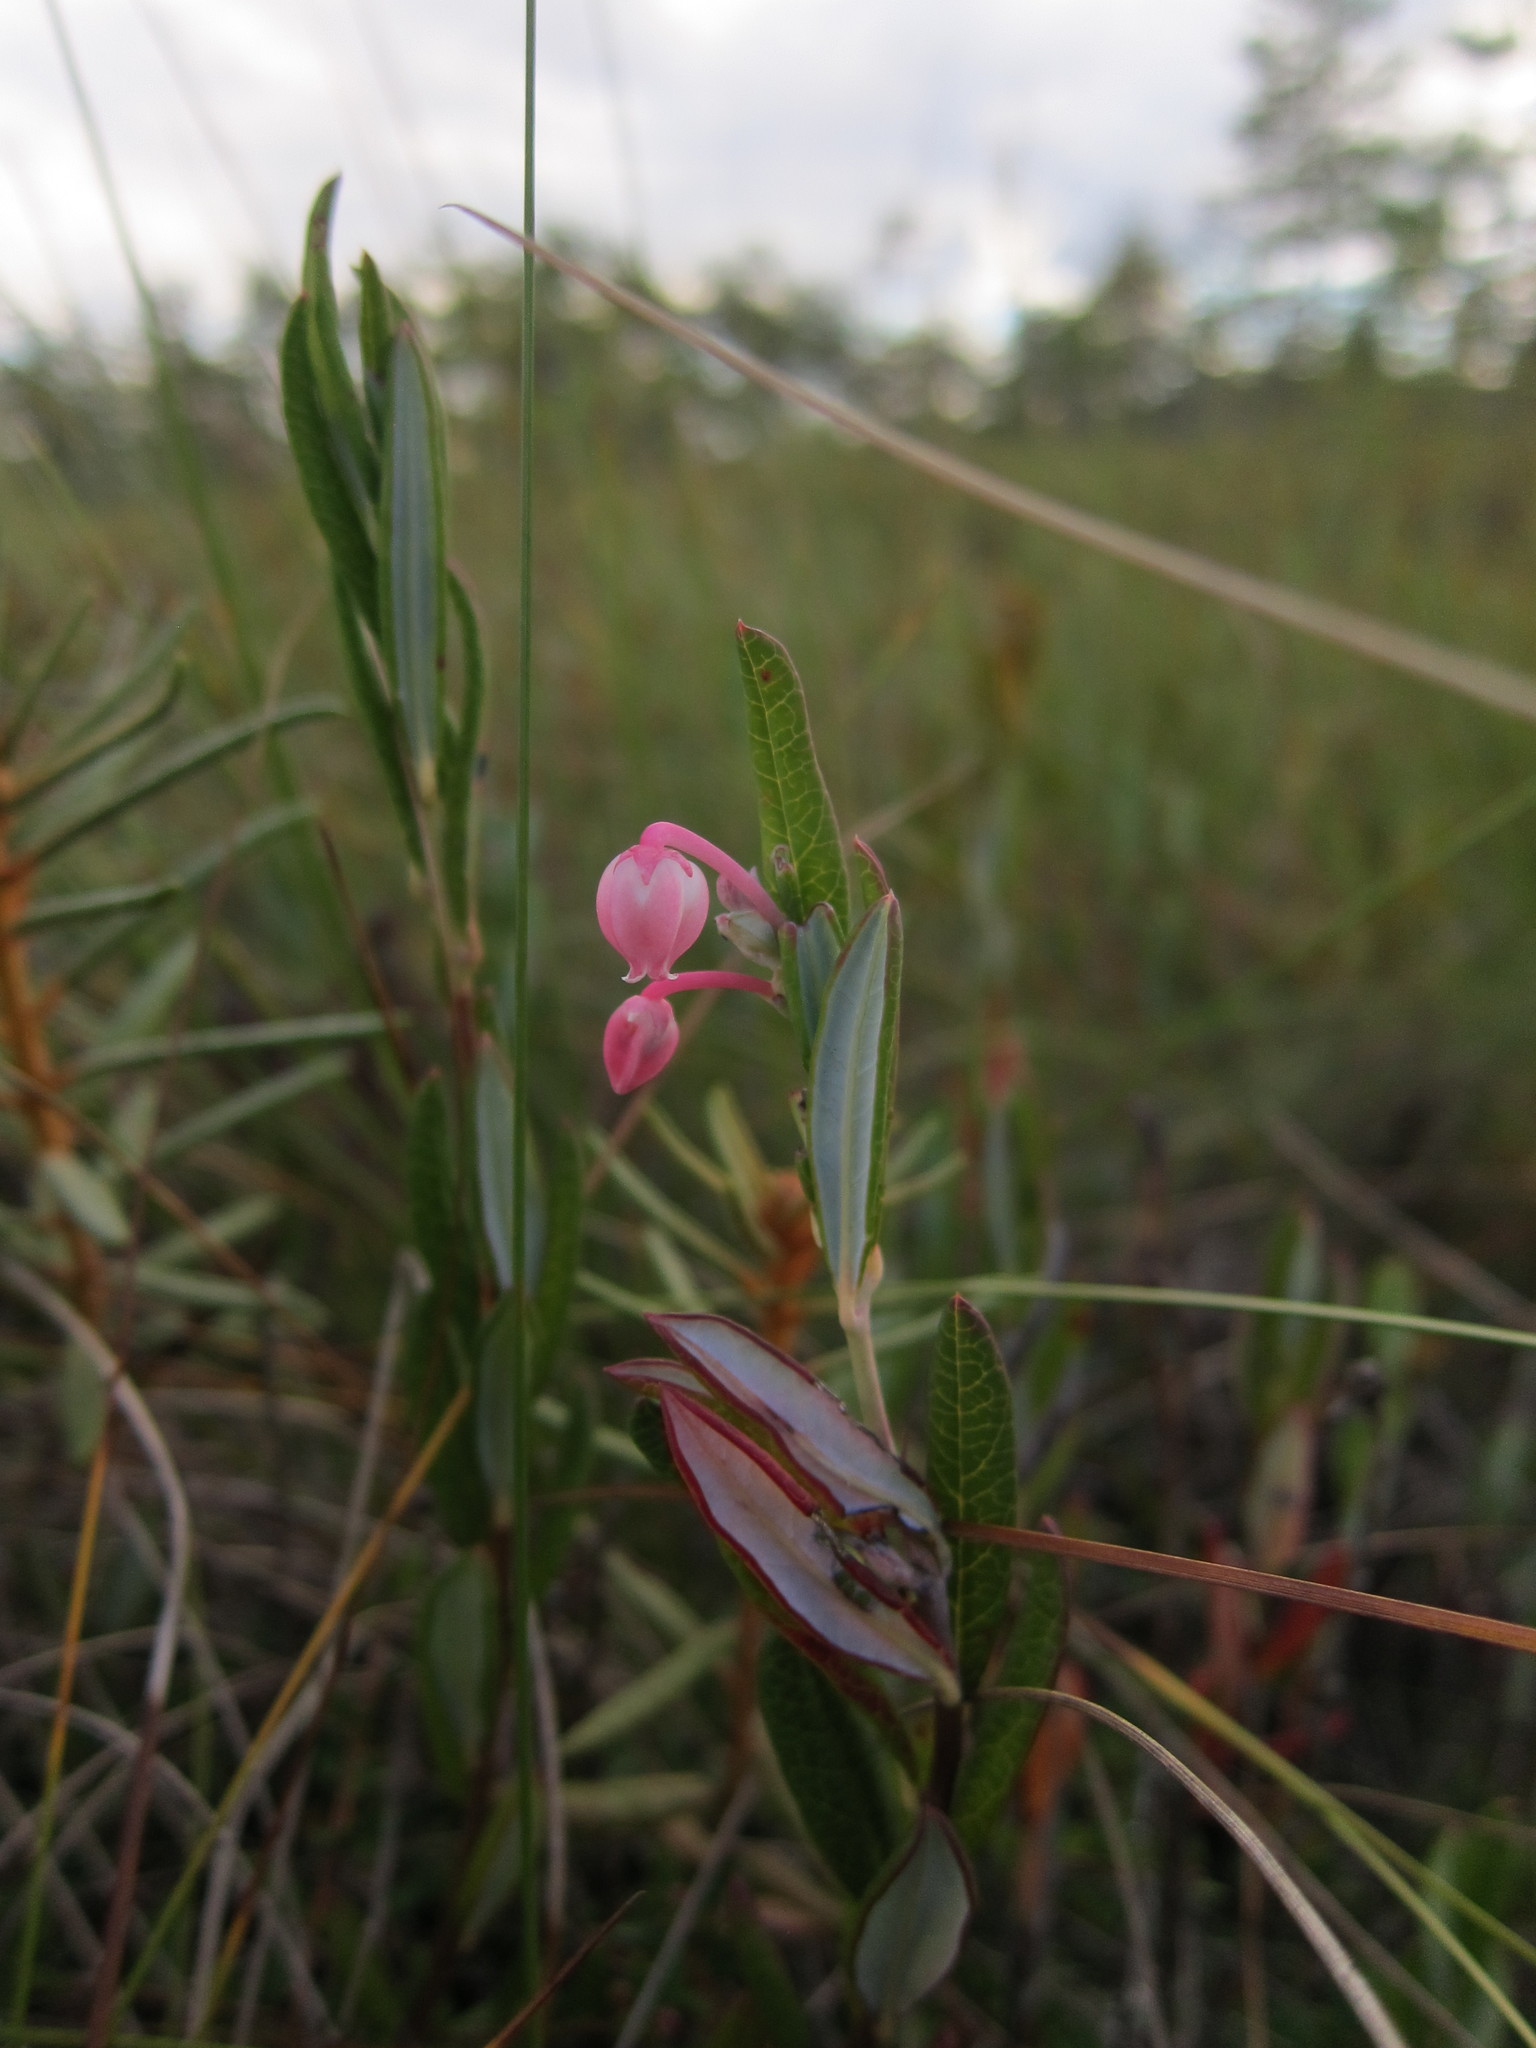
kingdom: Plantae
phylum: Tracheophyta
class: Magnoliopsida
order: Ericales
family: Ericaceae
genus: Andromeda
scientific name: Andromeda polifolia
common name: Bog-rosemary
